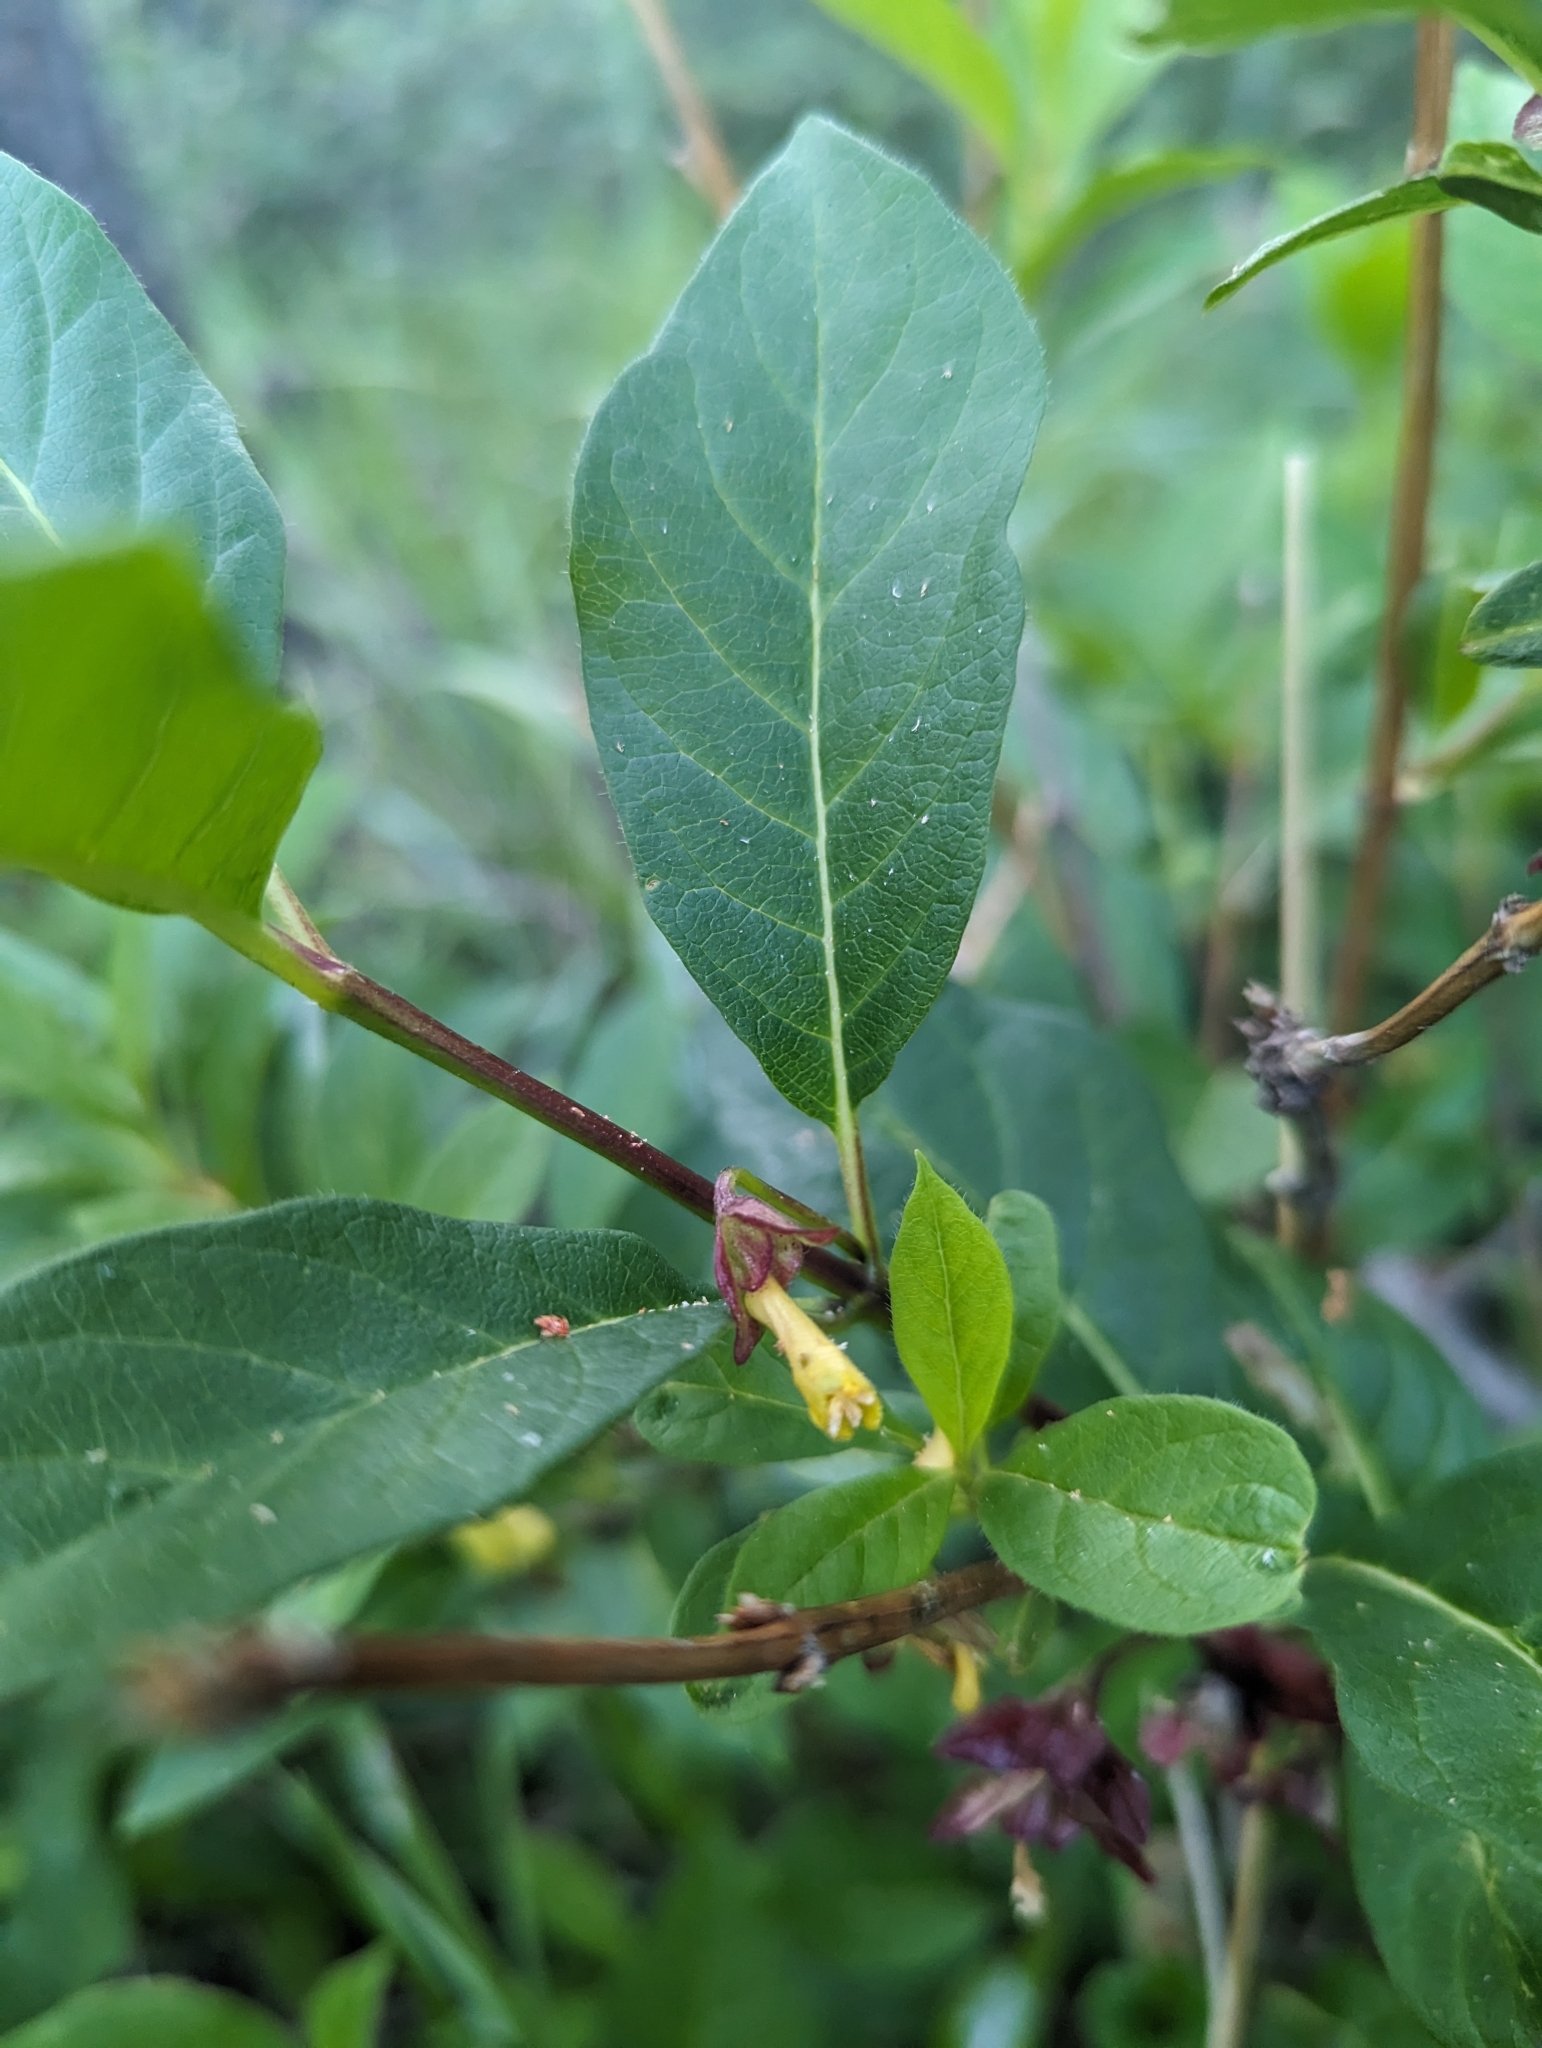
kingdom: Plantae
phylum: Tracheophyta
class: Magnoliopsida
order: Dipsacales
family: Caprifoliaceae
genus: Lonicera
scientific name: Lonicera involucrata
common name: Californian honeysuckle
